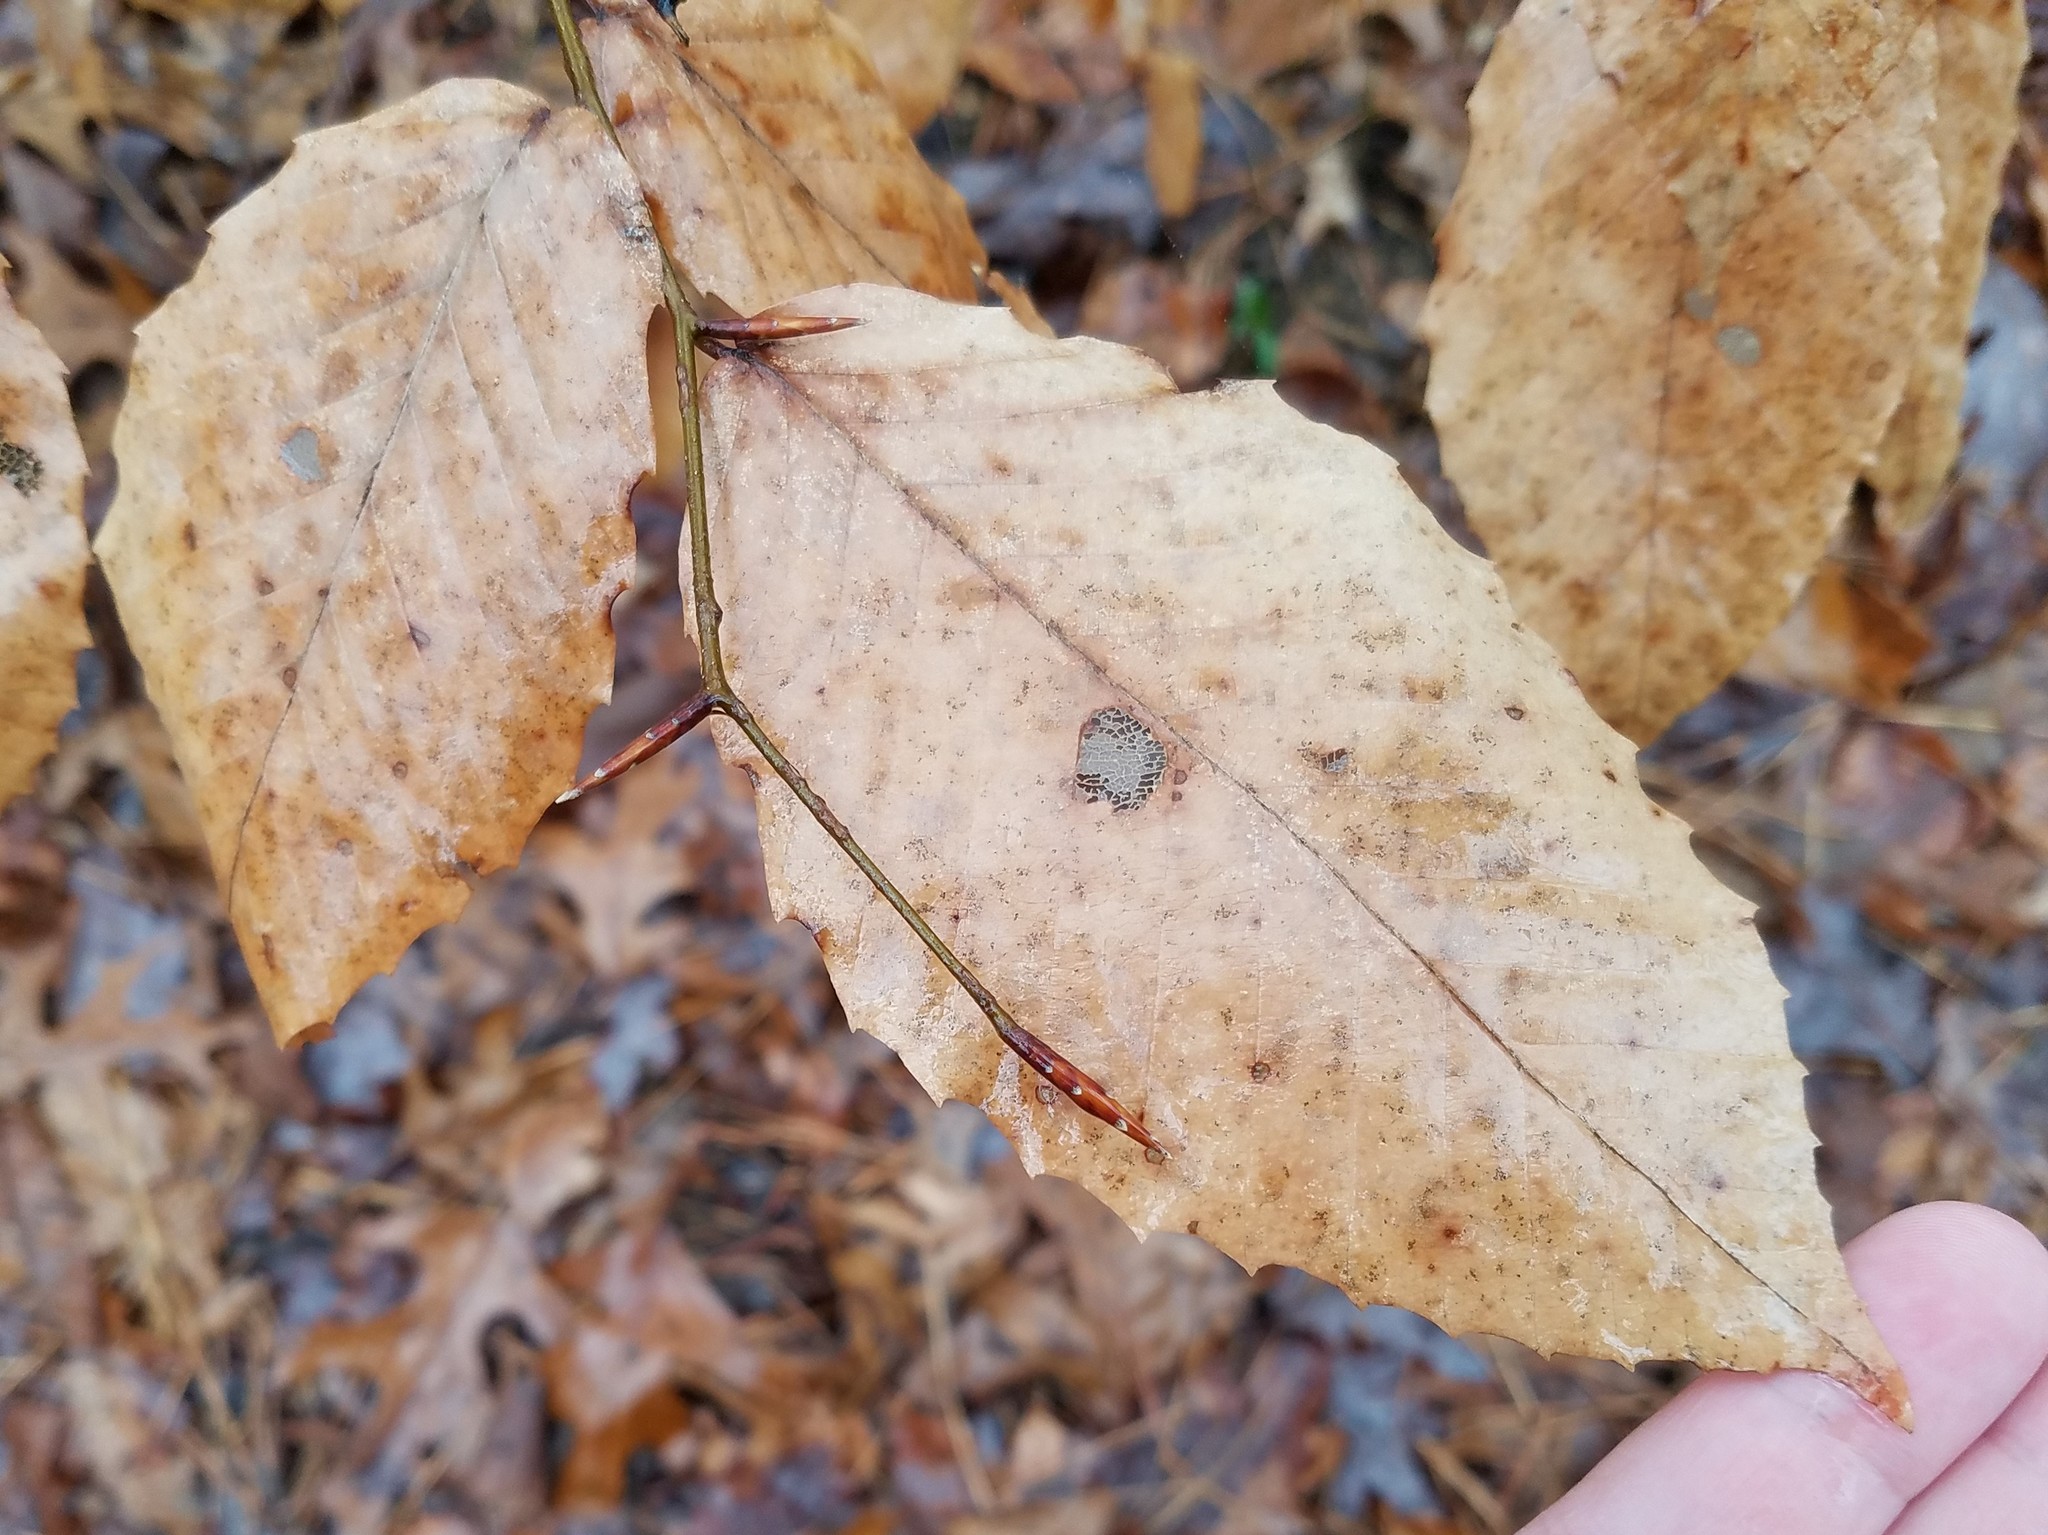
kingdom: Plantae
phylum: Tracheophyta
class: Magnoliopsida
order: Fagales
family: Fagaceae
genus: Fagus
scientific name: Fagus grandifolia
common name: American beech
